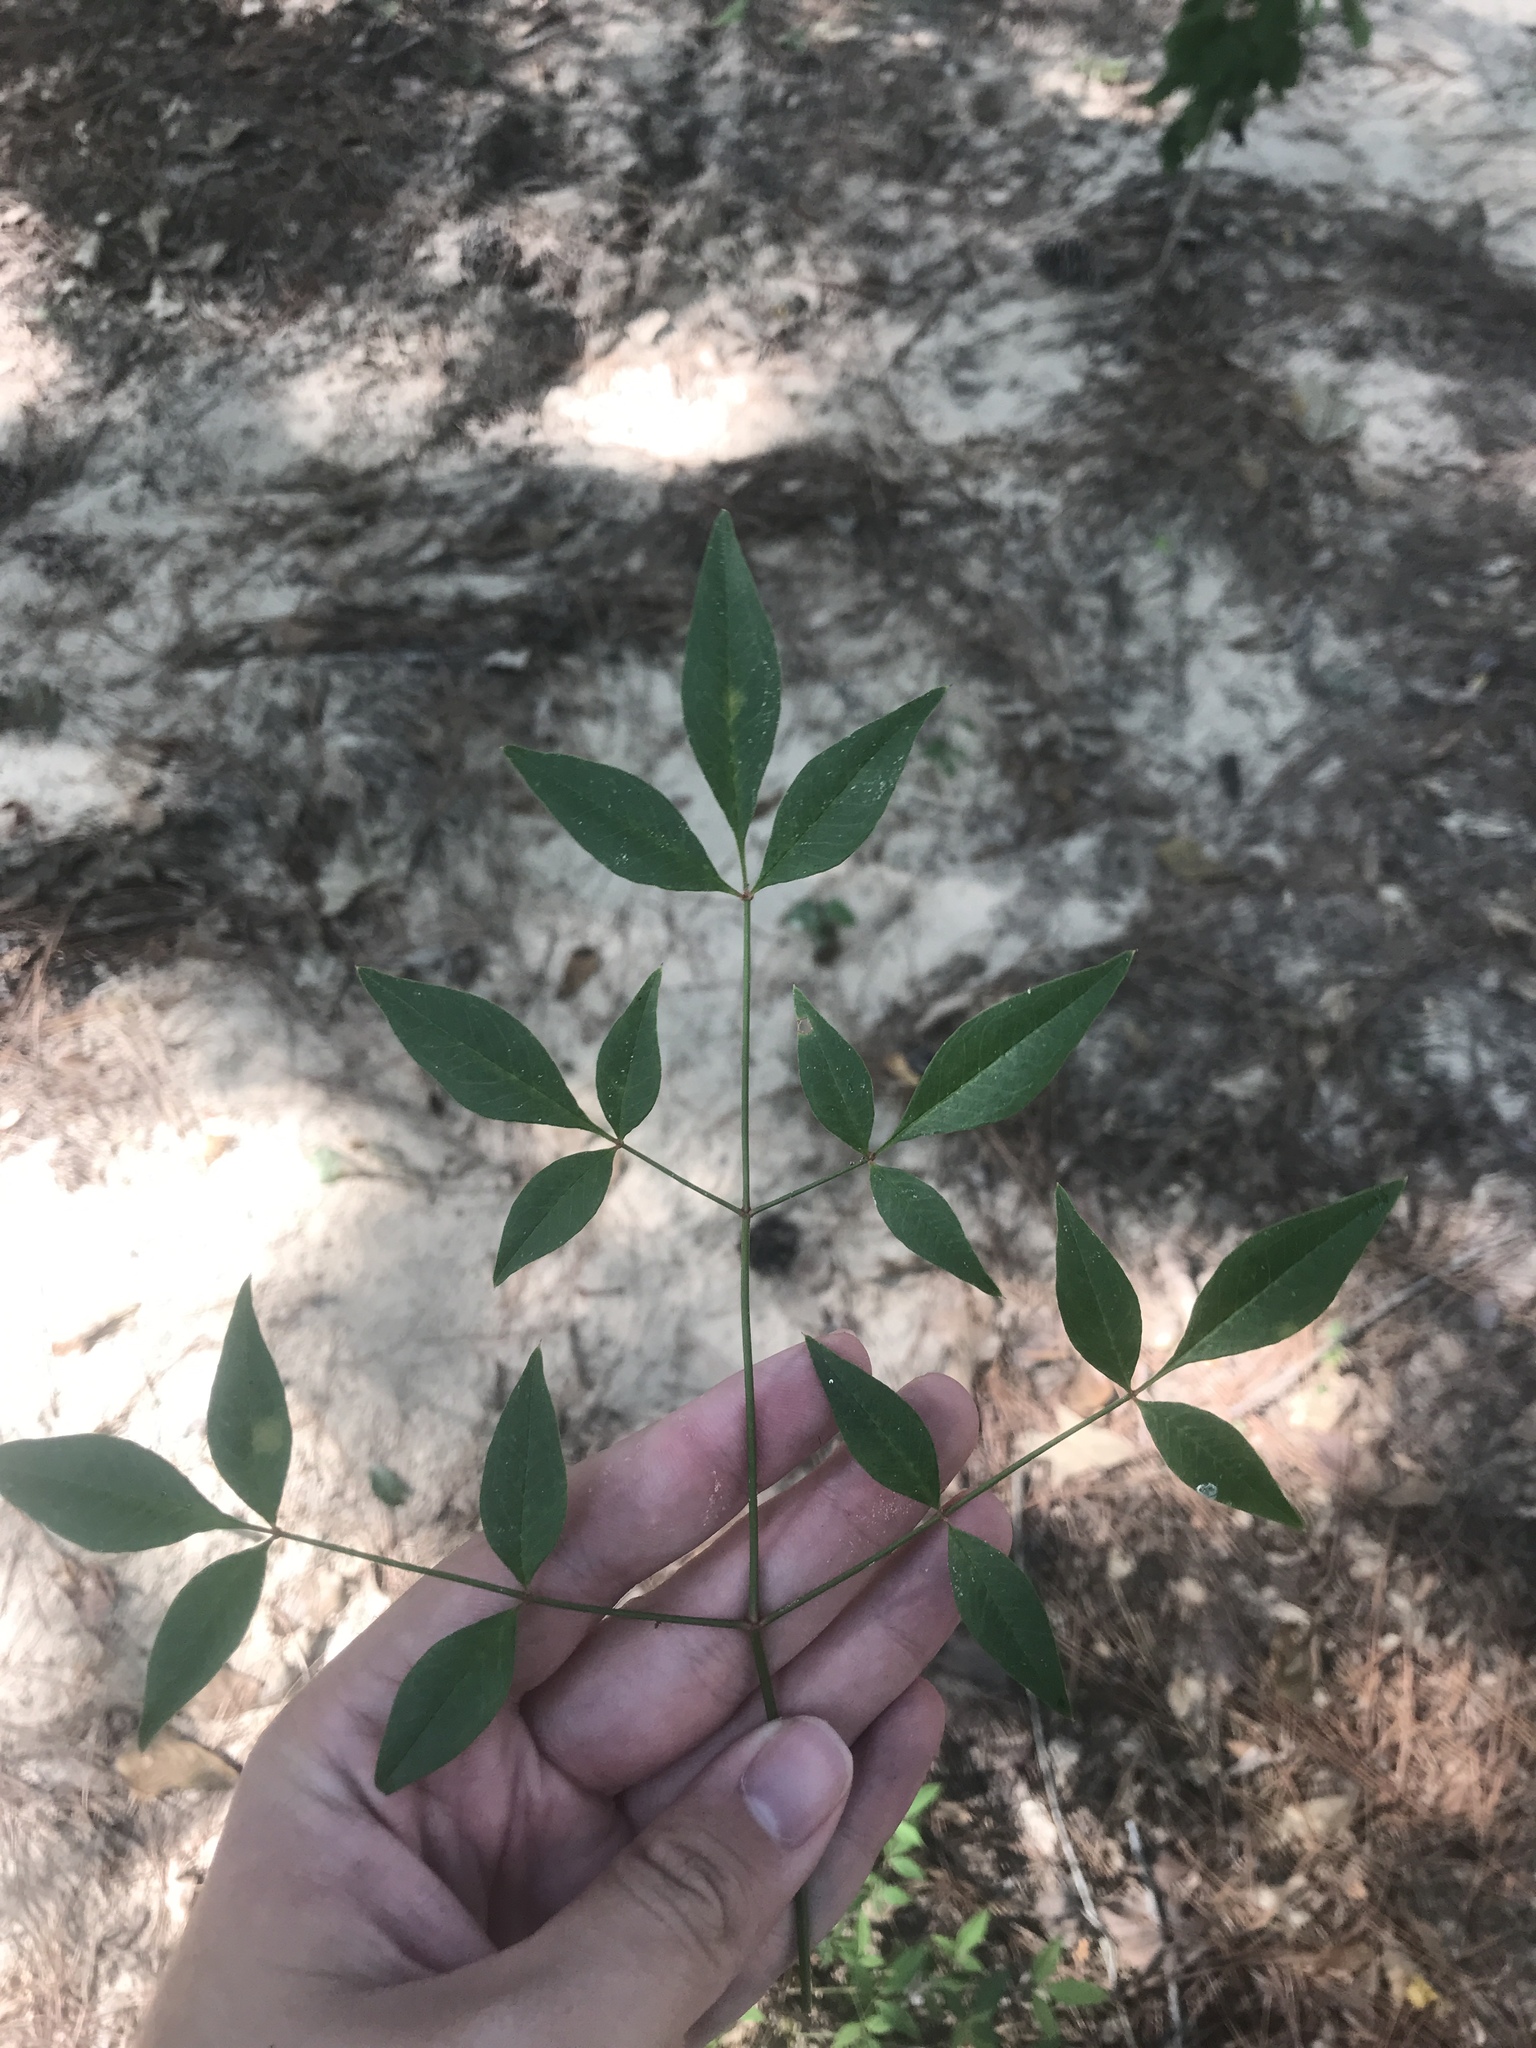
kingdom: Plantae
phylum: Tracheophyta
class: Magnoliopsida
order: Ranunculales
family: Berberidaceae
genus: Nandina
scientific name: Nandina domestica
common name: Sacred bamboo
